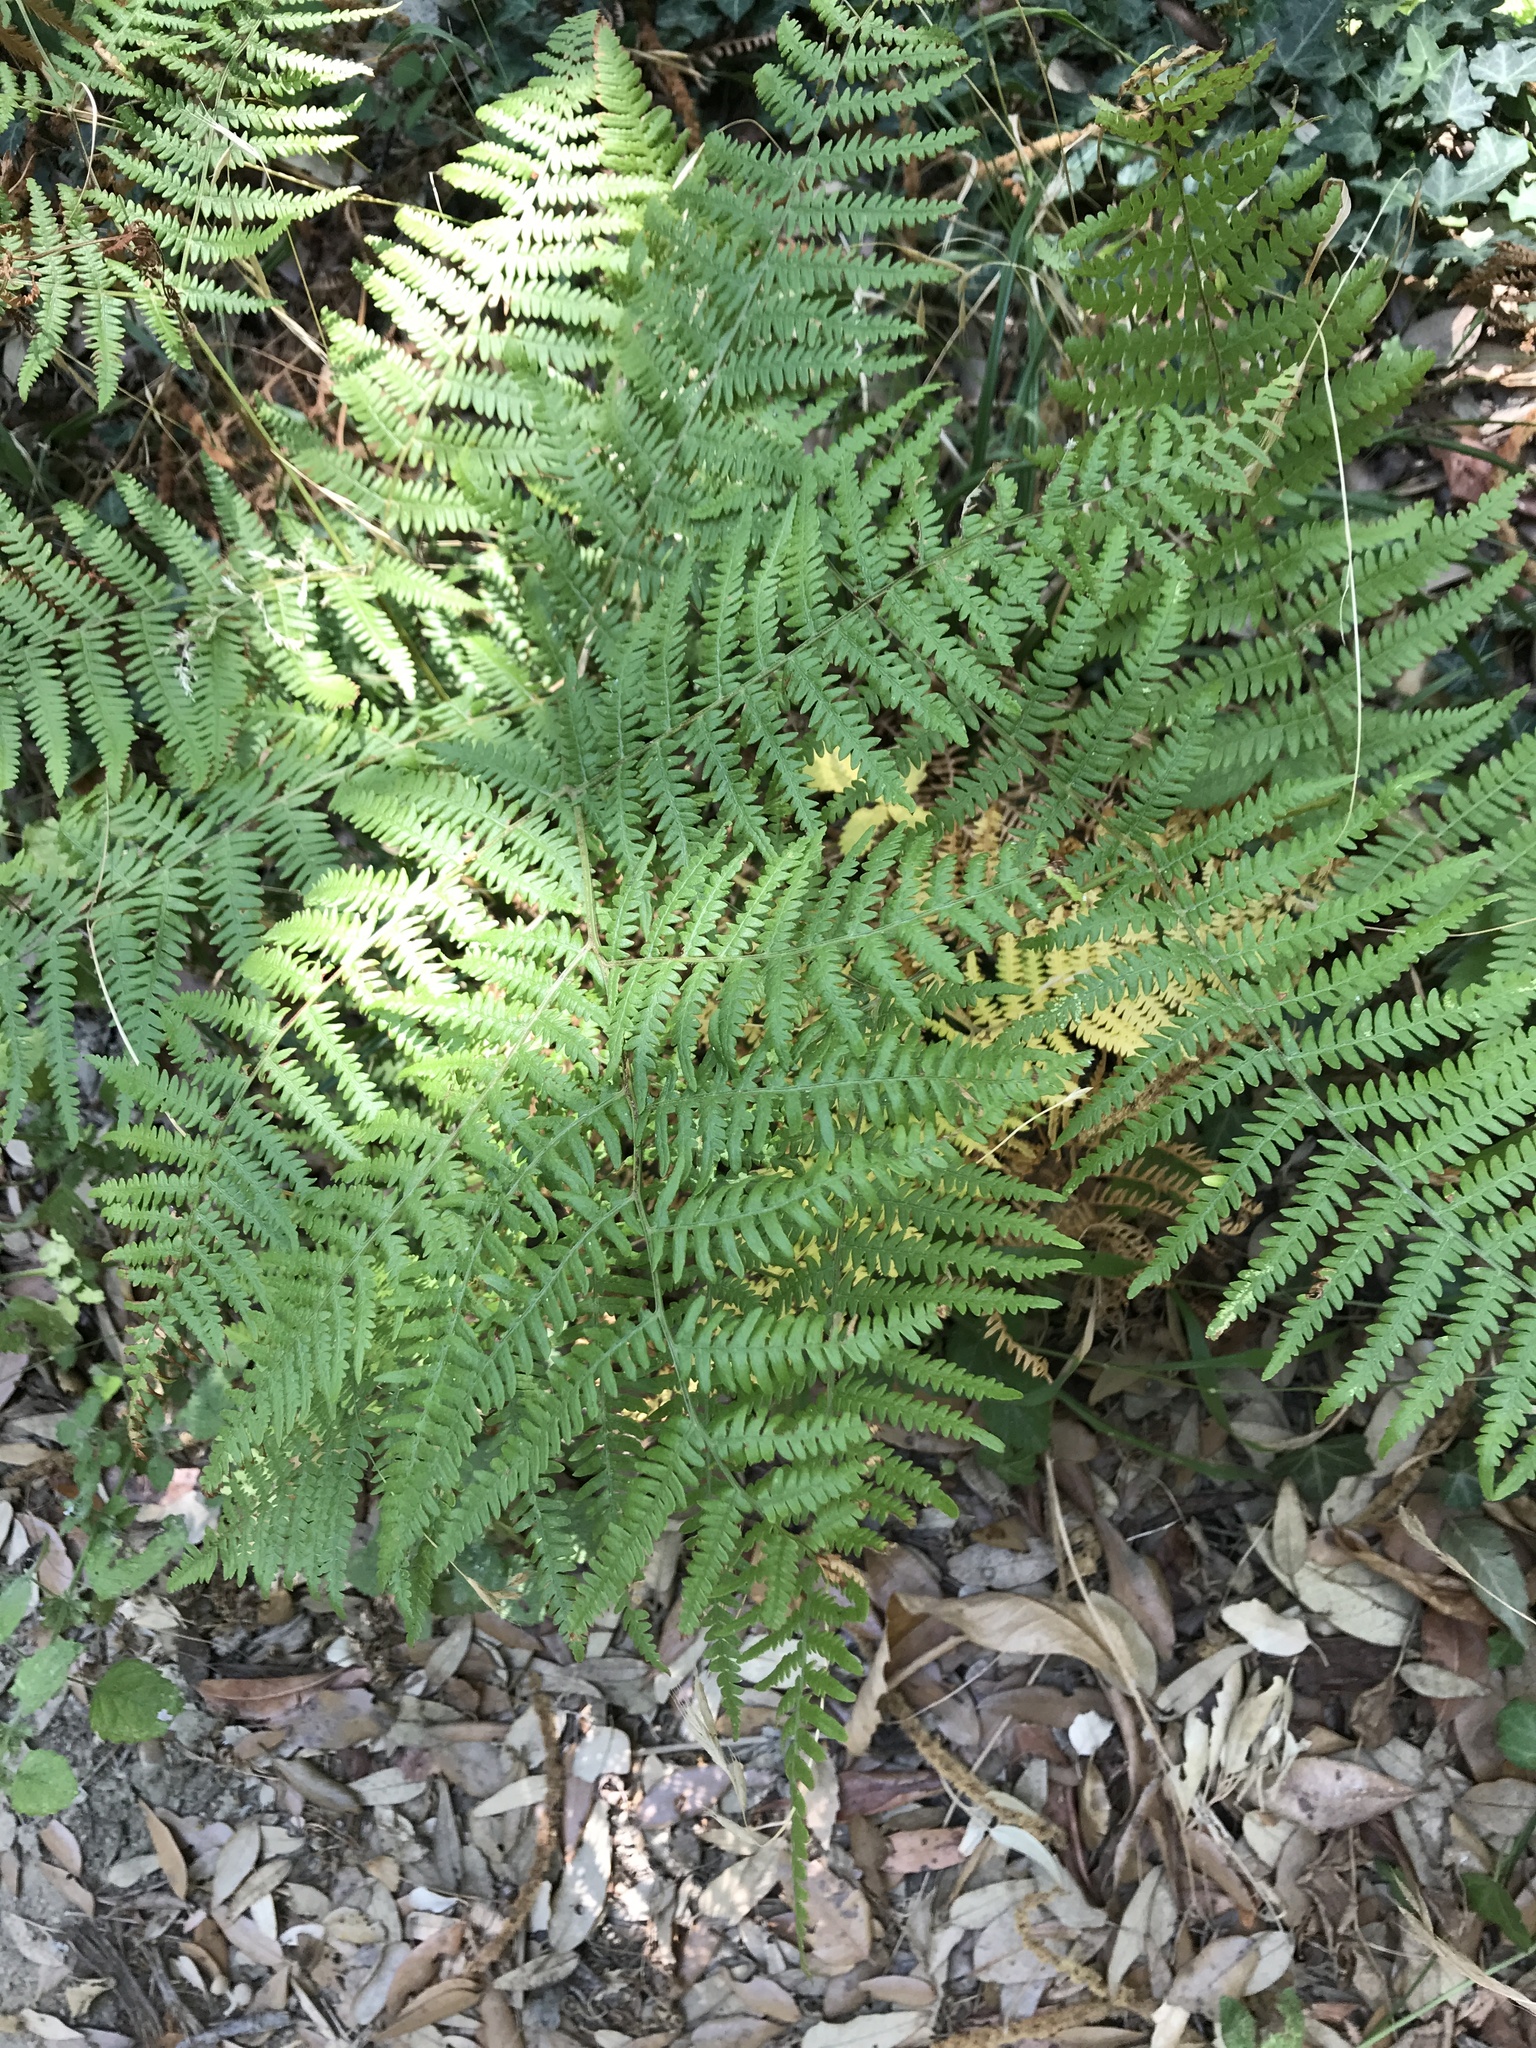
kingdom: Plantae
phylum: Tracheophyta
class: Polypodiopsida
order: Polypodiales
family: Dennstaedtiaceae
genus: Pteridium
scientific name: Pteridium aquilinum
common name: Bracken
